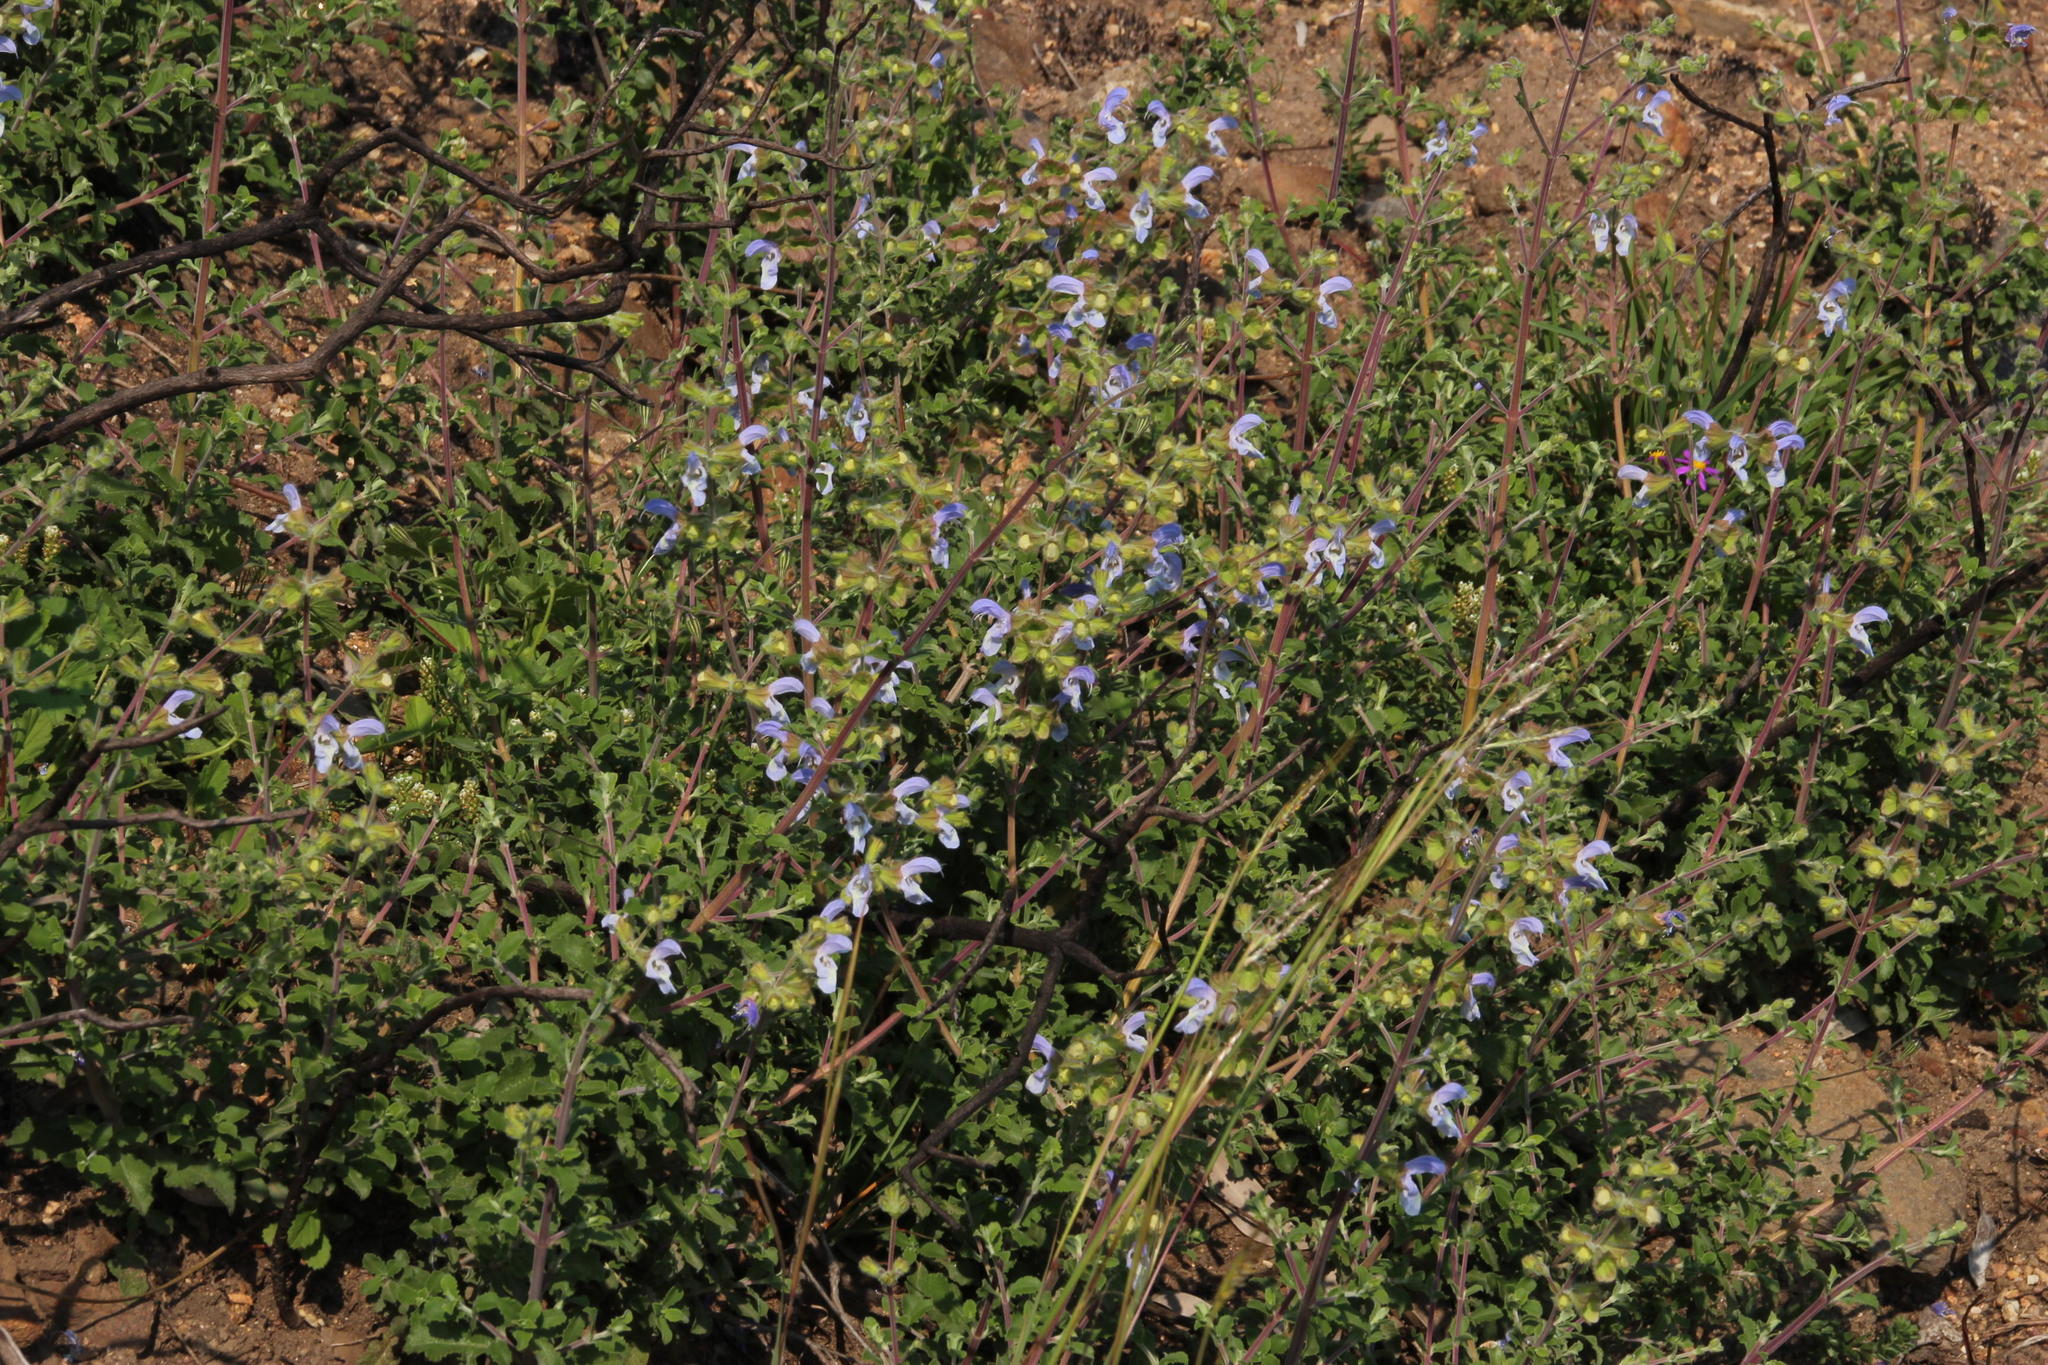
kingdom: Plantae
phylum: Tracheophyta
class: Magnoliopsida
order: Lamiales
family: Lamiaceae
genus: Salvia
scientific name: Salvia africana
